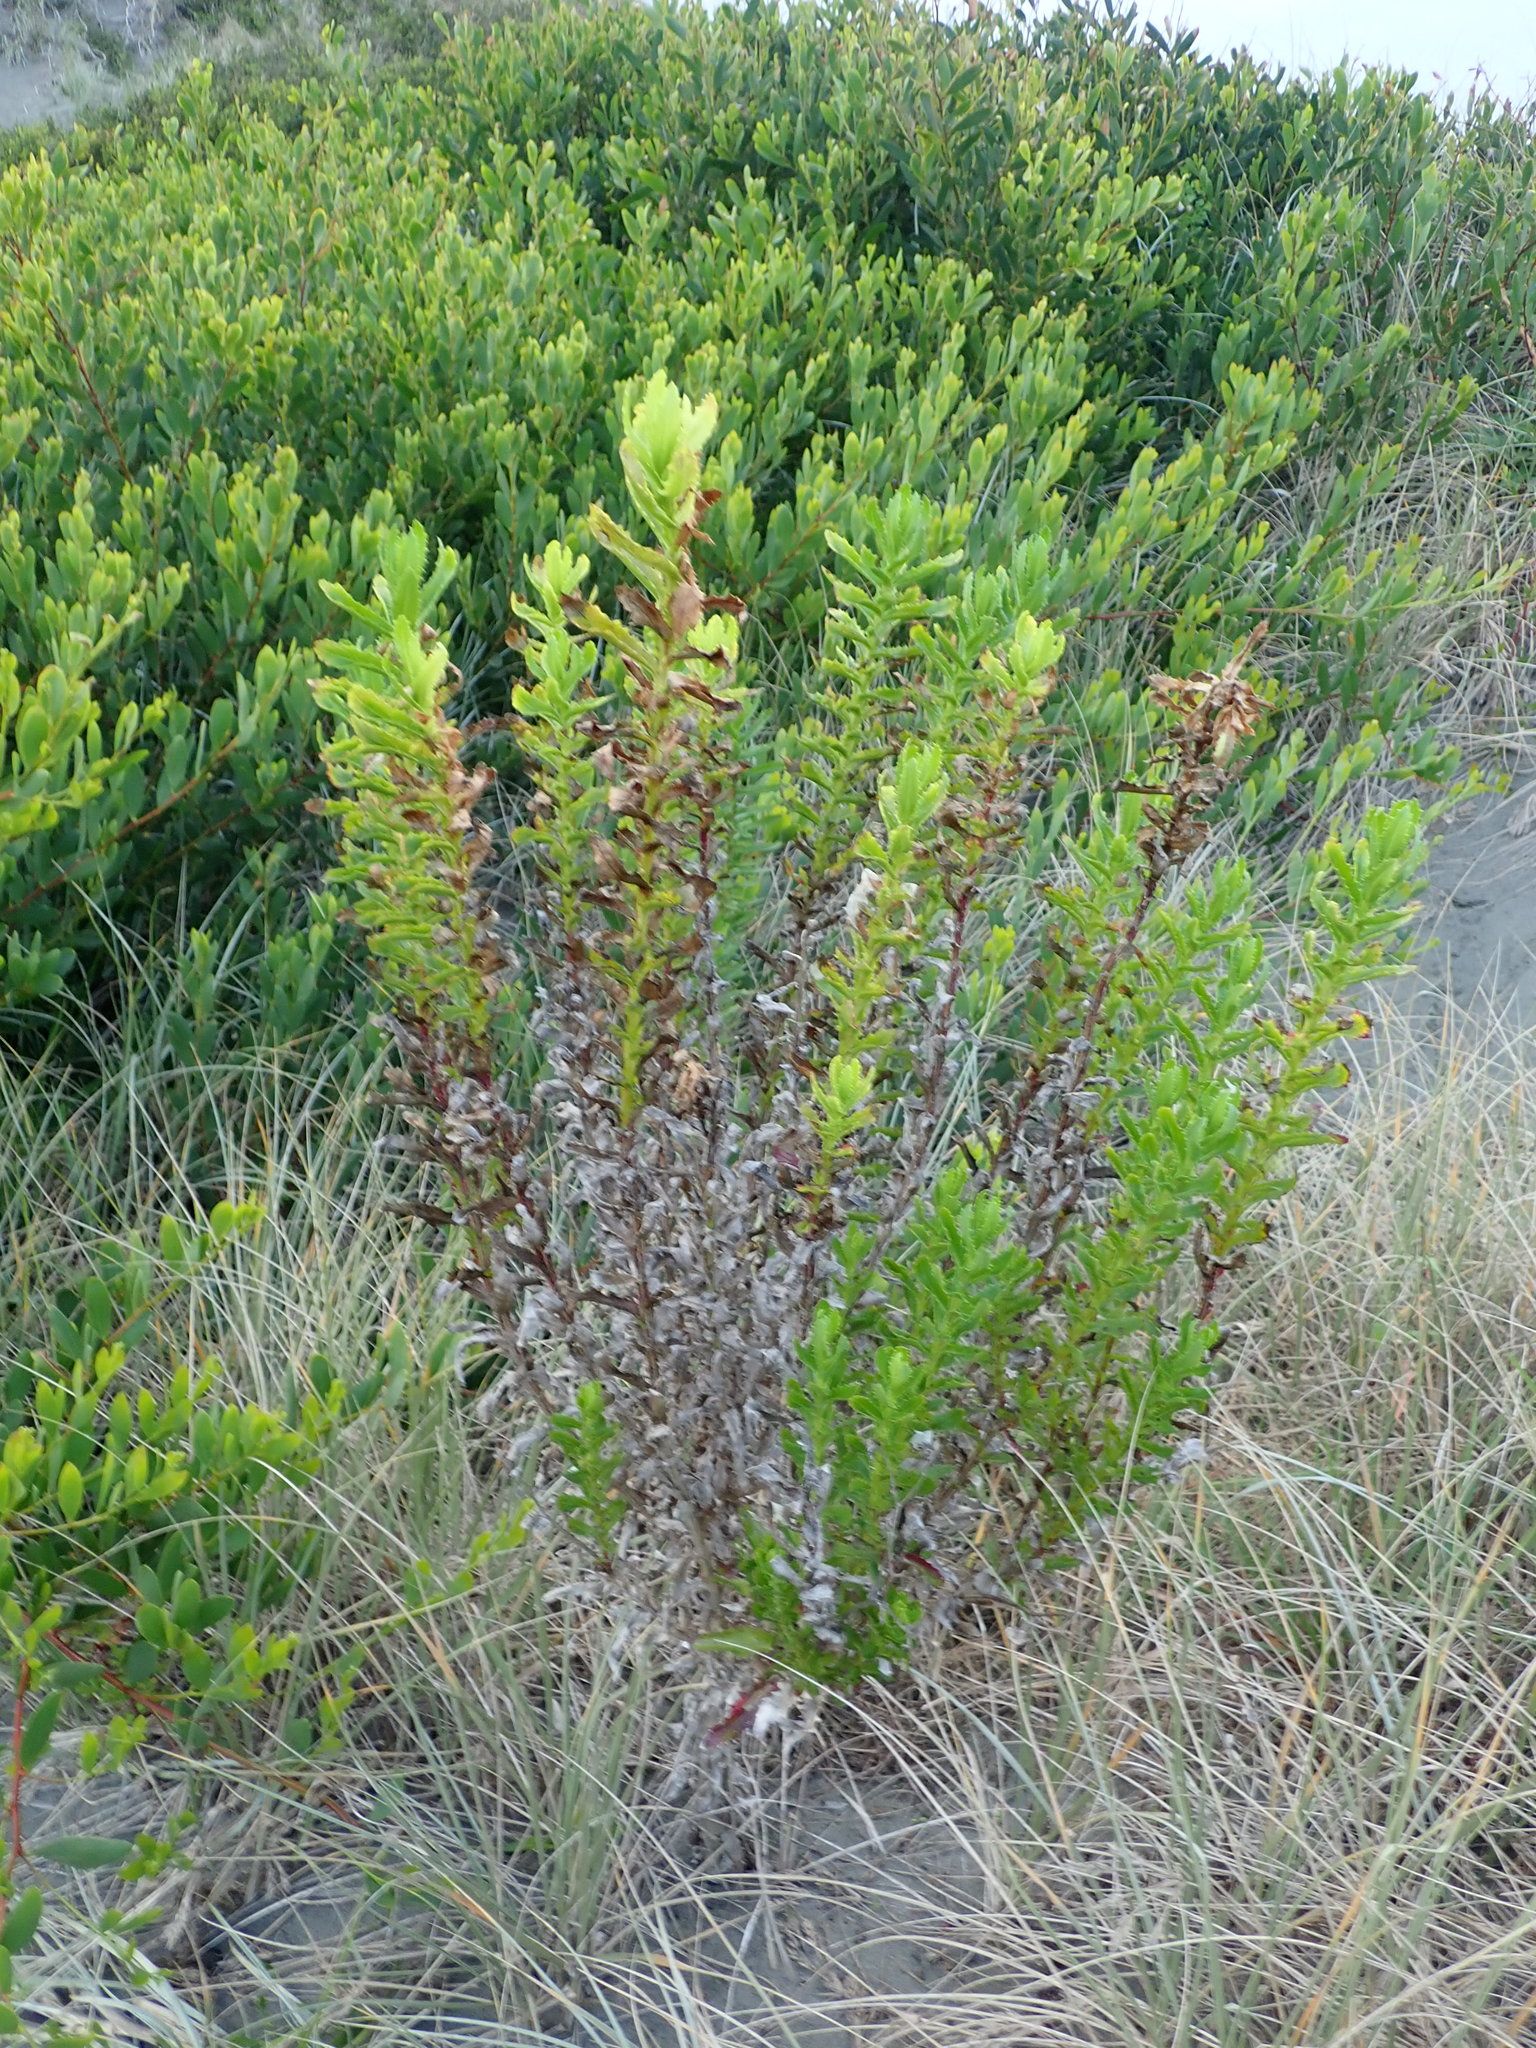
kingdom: Plantae
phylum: Tracheophyta
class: Magnoliopsida
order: Asterales
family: Asteraceae
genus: Senecio
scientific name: Senecio glastifolius
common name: Woad-leaved ragwort
